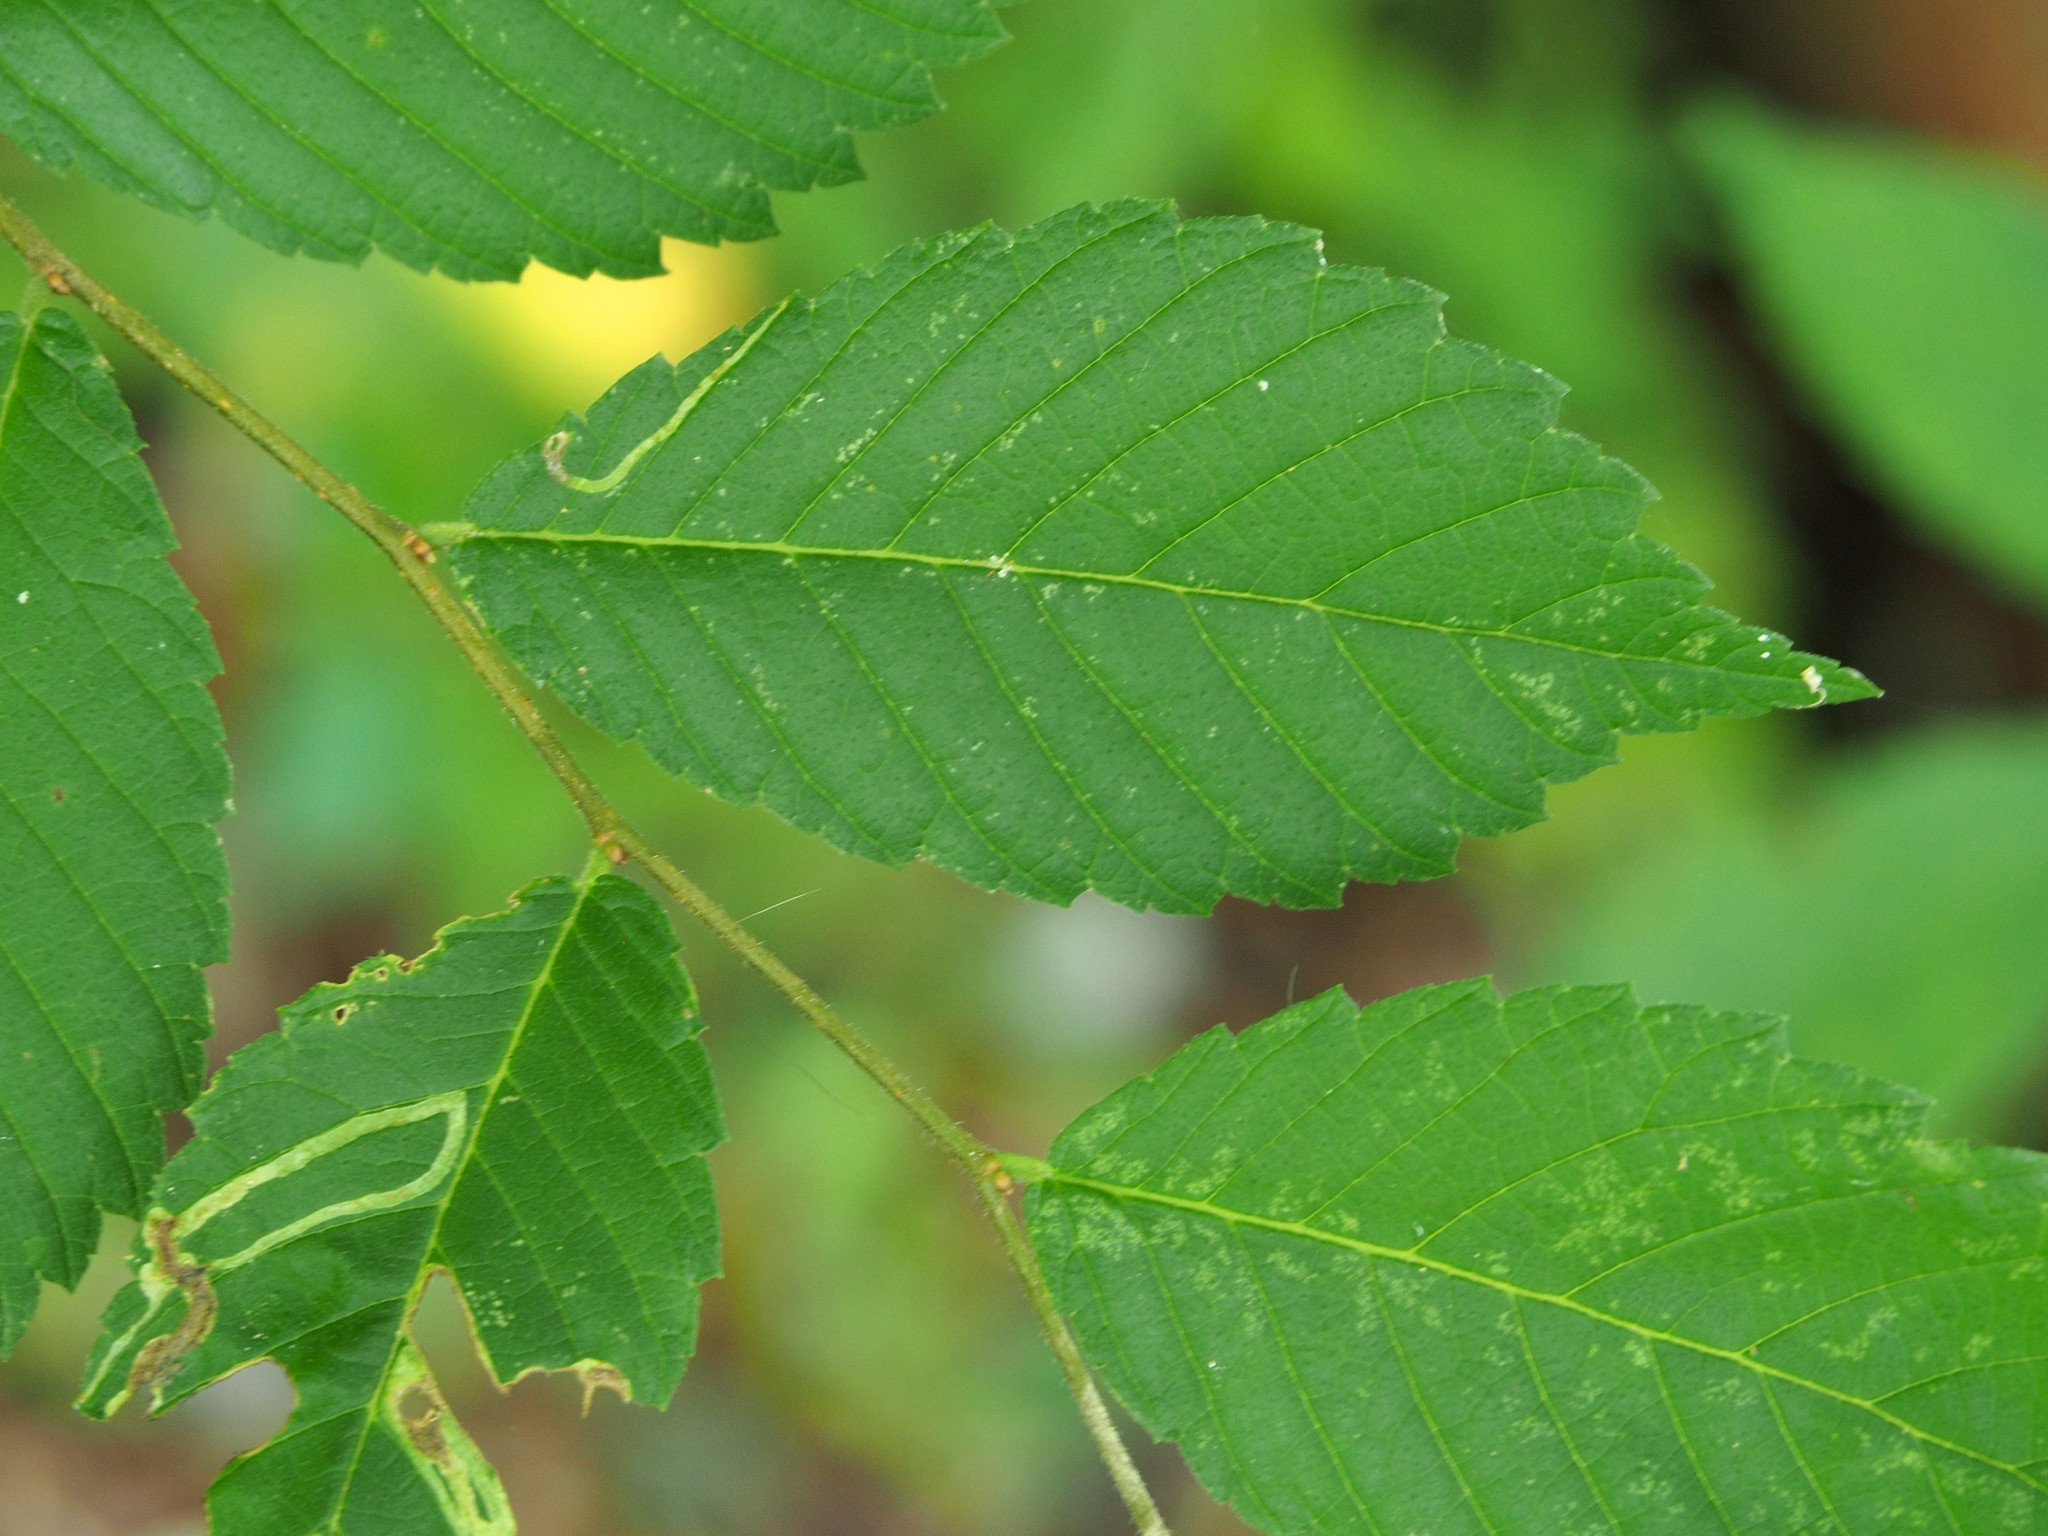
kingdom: Animalia
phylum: Arthropoda
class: Insecta
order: Diptera
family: Agromyzidae
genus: Agromyza
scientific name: Agromyza aristata
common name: Elm agromyzid leafminer
